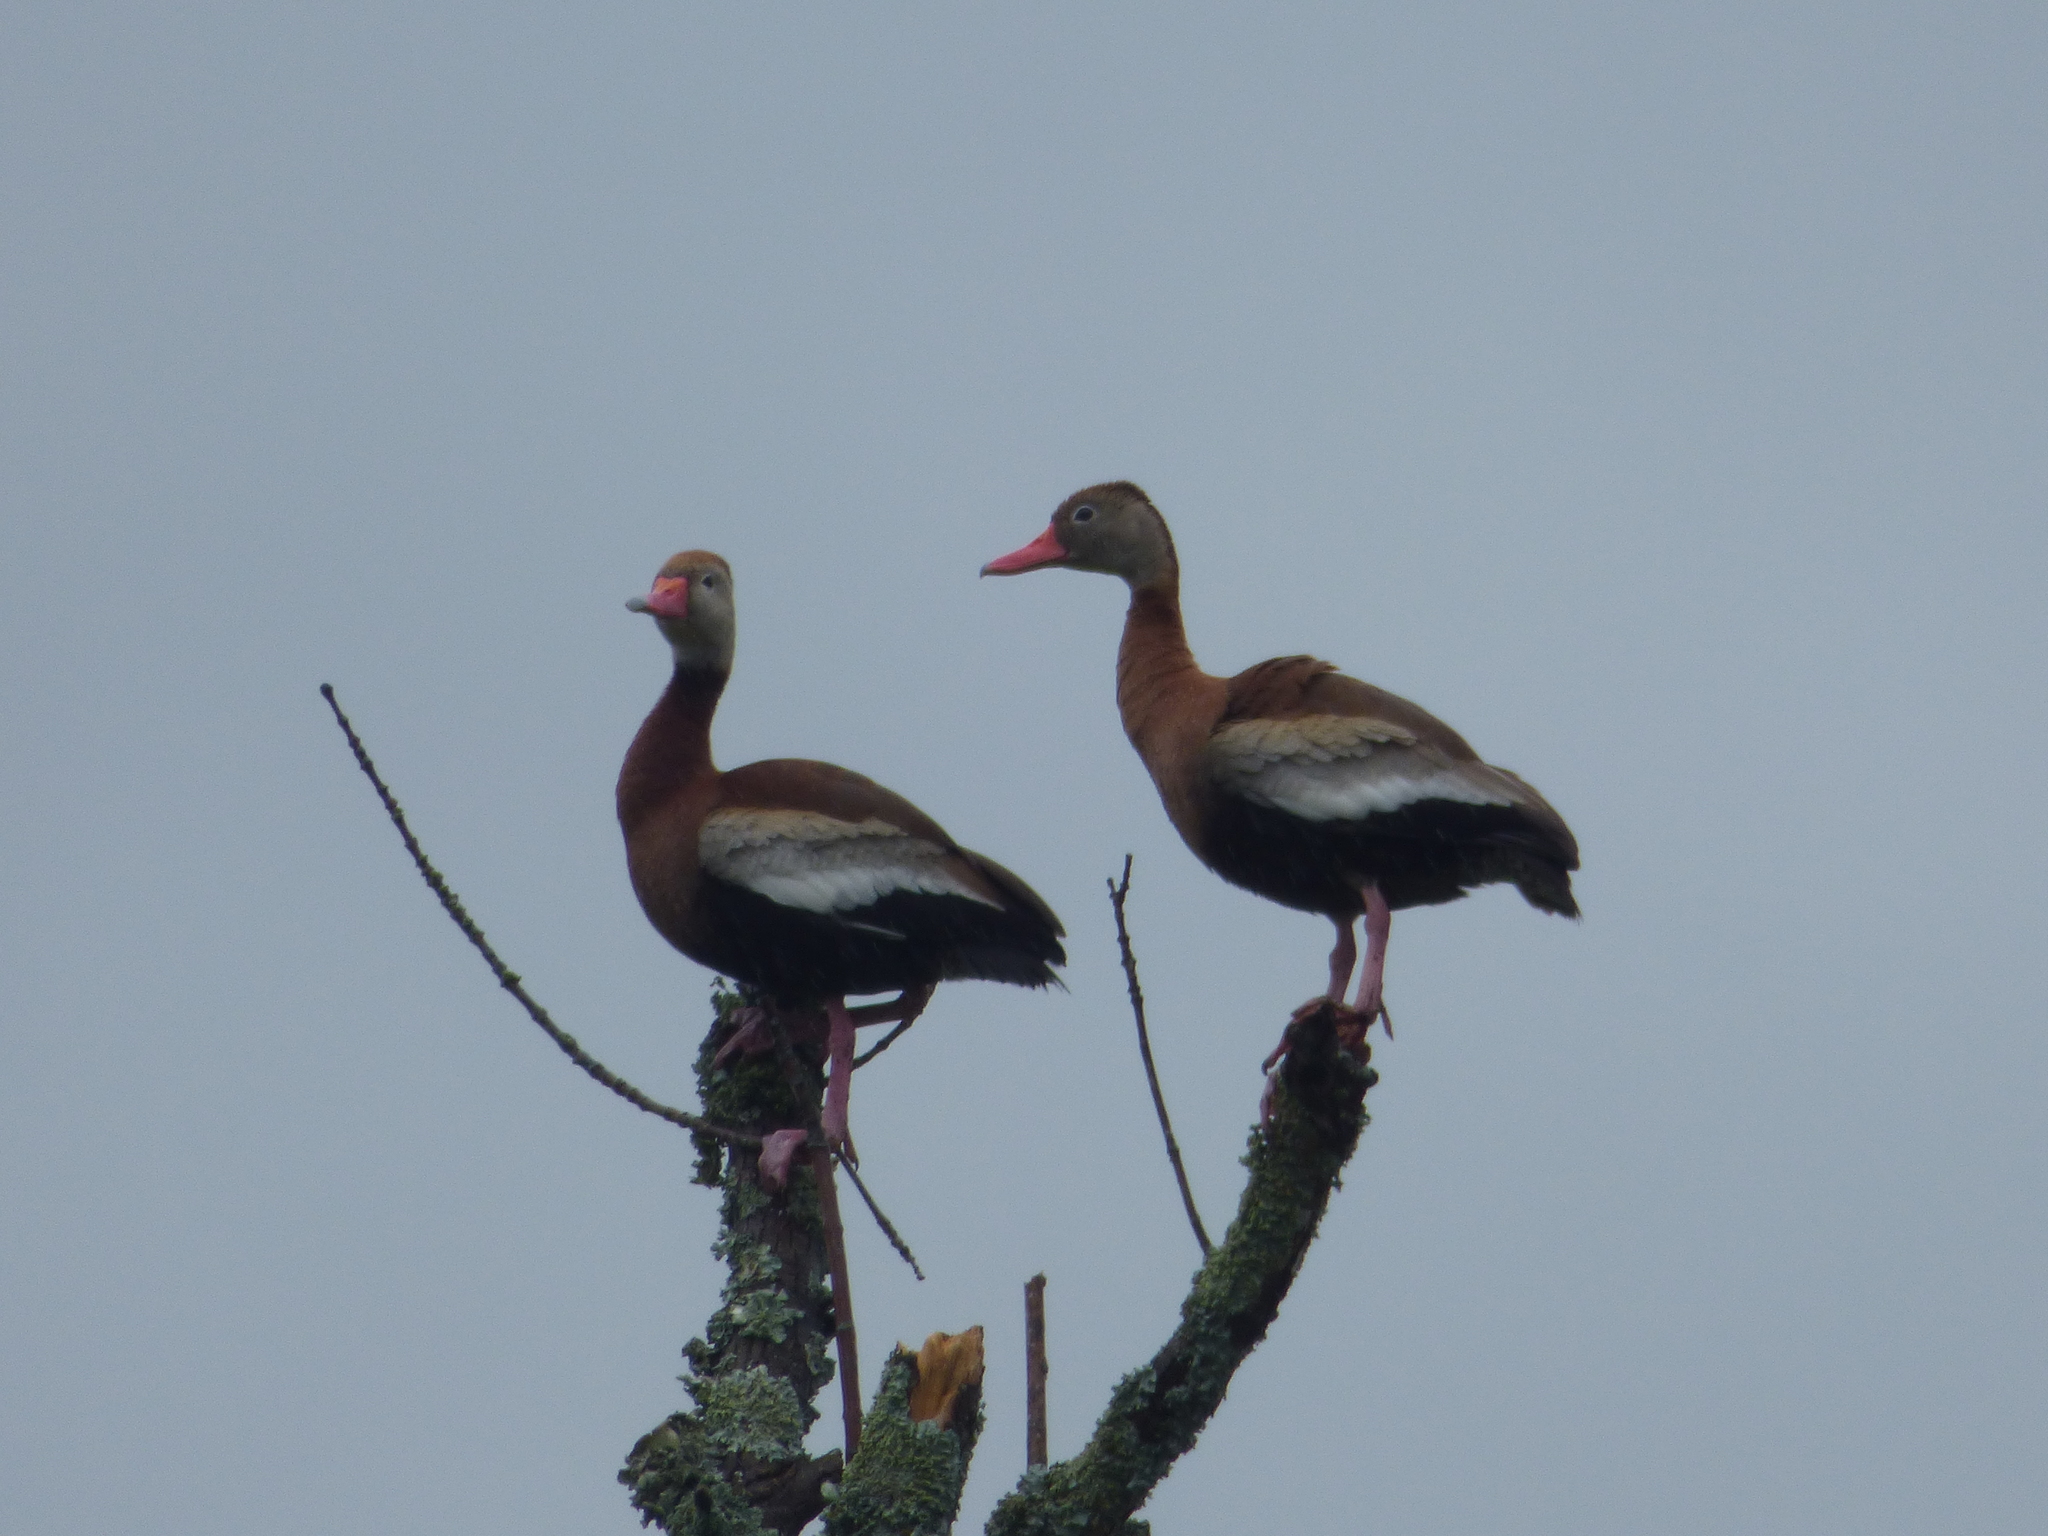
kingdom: Animalia
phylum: Chordata
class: Aves
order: Anseriformes
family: Anatidae
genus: Dendrocygna
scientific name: Dendrocygna autumnalis
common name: Black-bellied whistling duck
